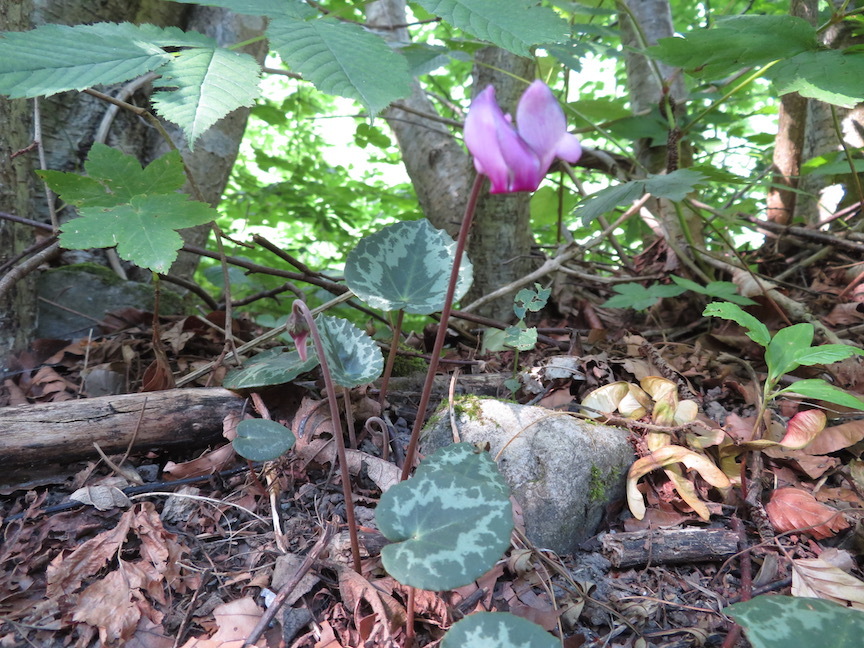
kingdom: Plantae
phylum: Tracheophyta
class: Magnoliopsida
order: Ericales
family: Primulaceae
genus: Cyclamen
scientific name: Cyclamen purpurascens
